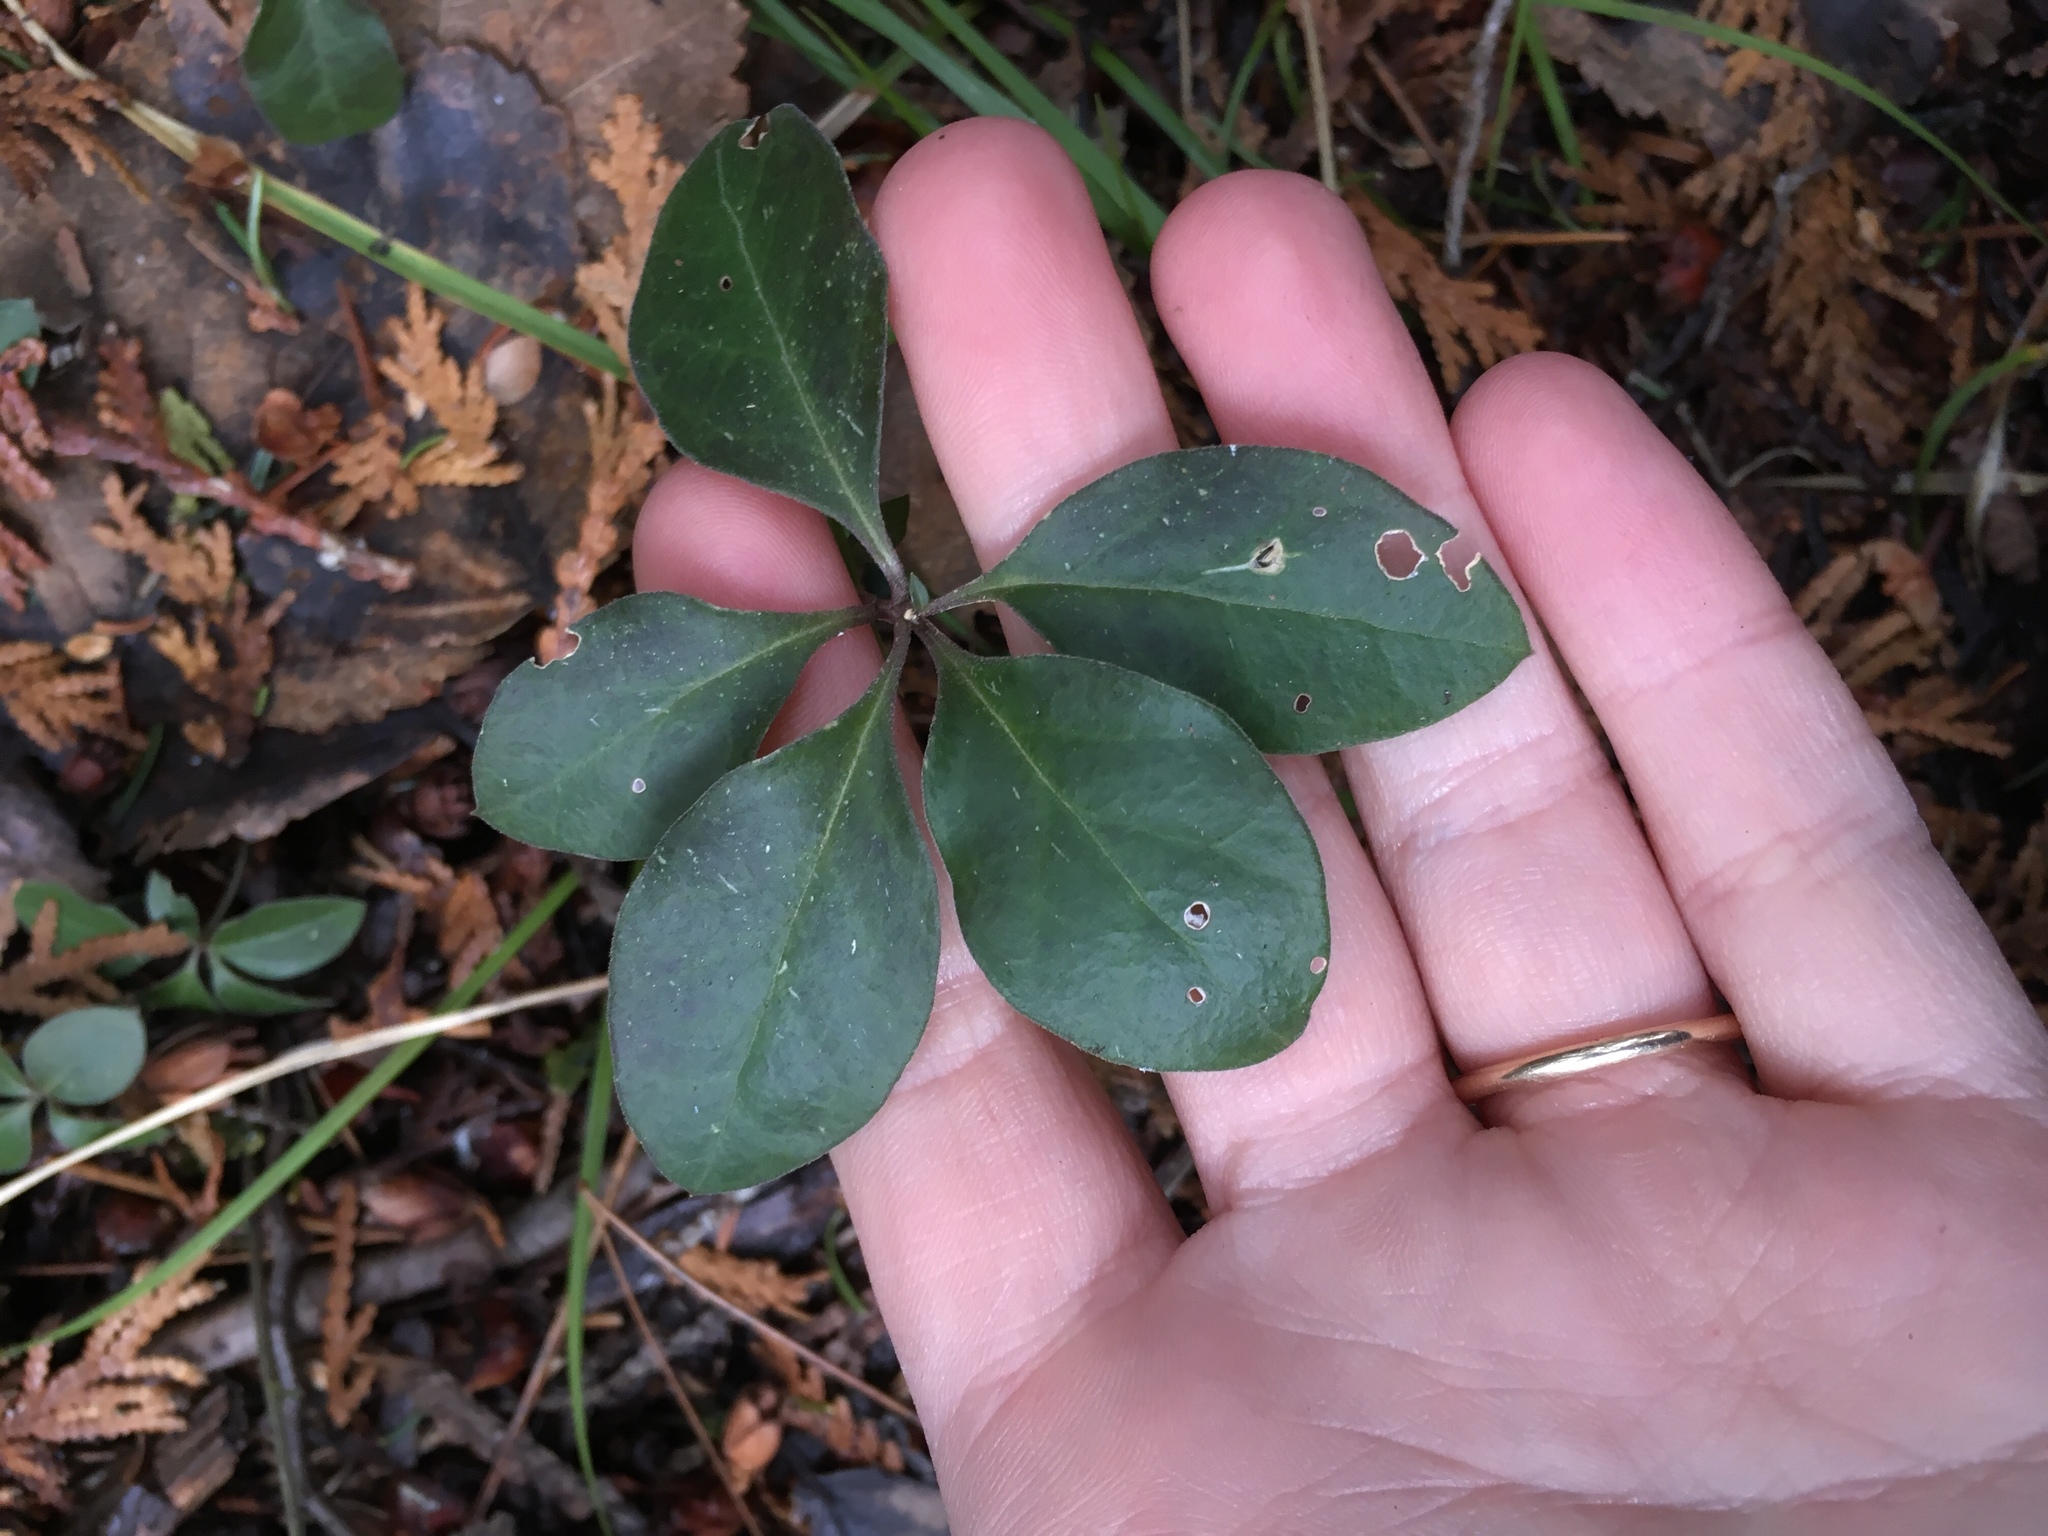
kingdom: Plantae
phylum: Tracheophyta
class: Magnoliopsida
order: Fabales
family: Polygalaceae
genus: Polygaloides
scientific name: Polygaloides paucifolia
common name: Bird-on-the-wing
